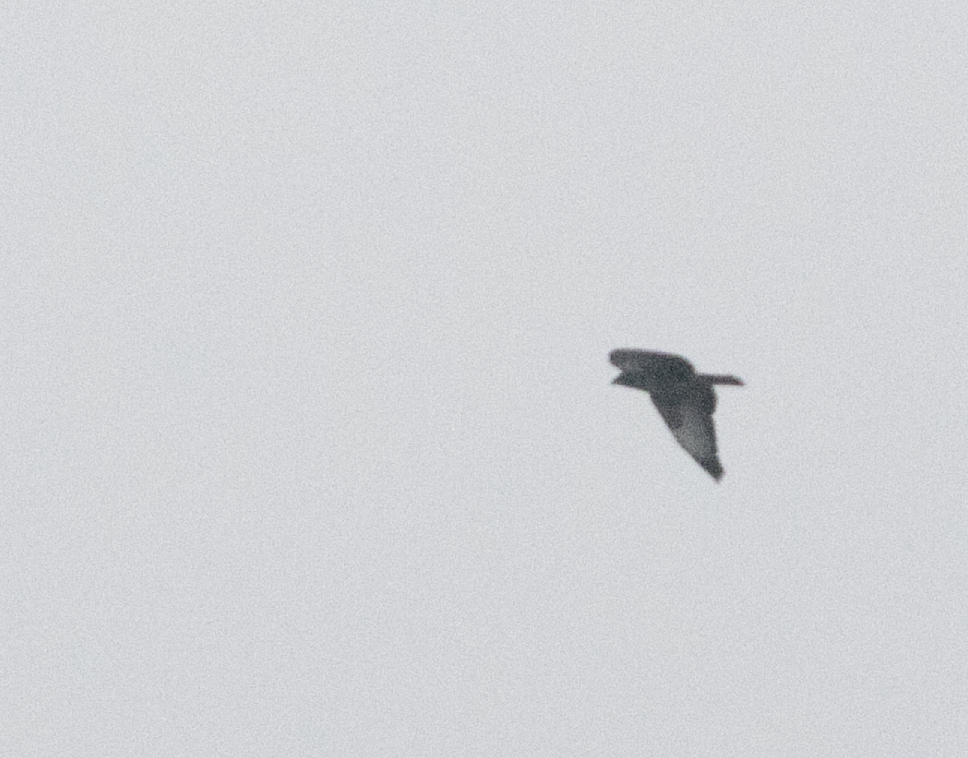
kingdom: Animalia
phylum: Chordata
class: Aves
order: Accipitriformes
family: Accipitridae
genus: Buteo
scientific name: Buteo buteo
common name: Common buzzard
